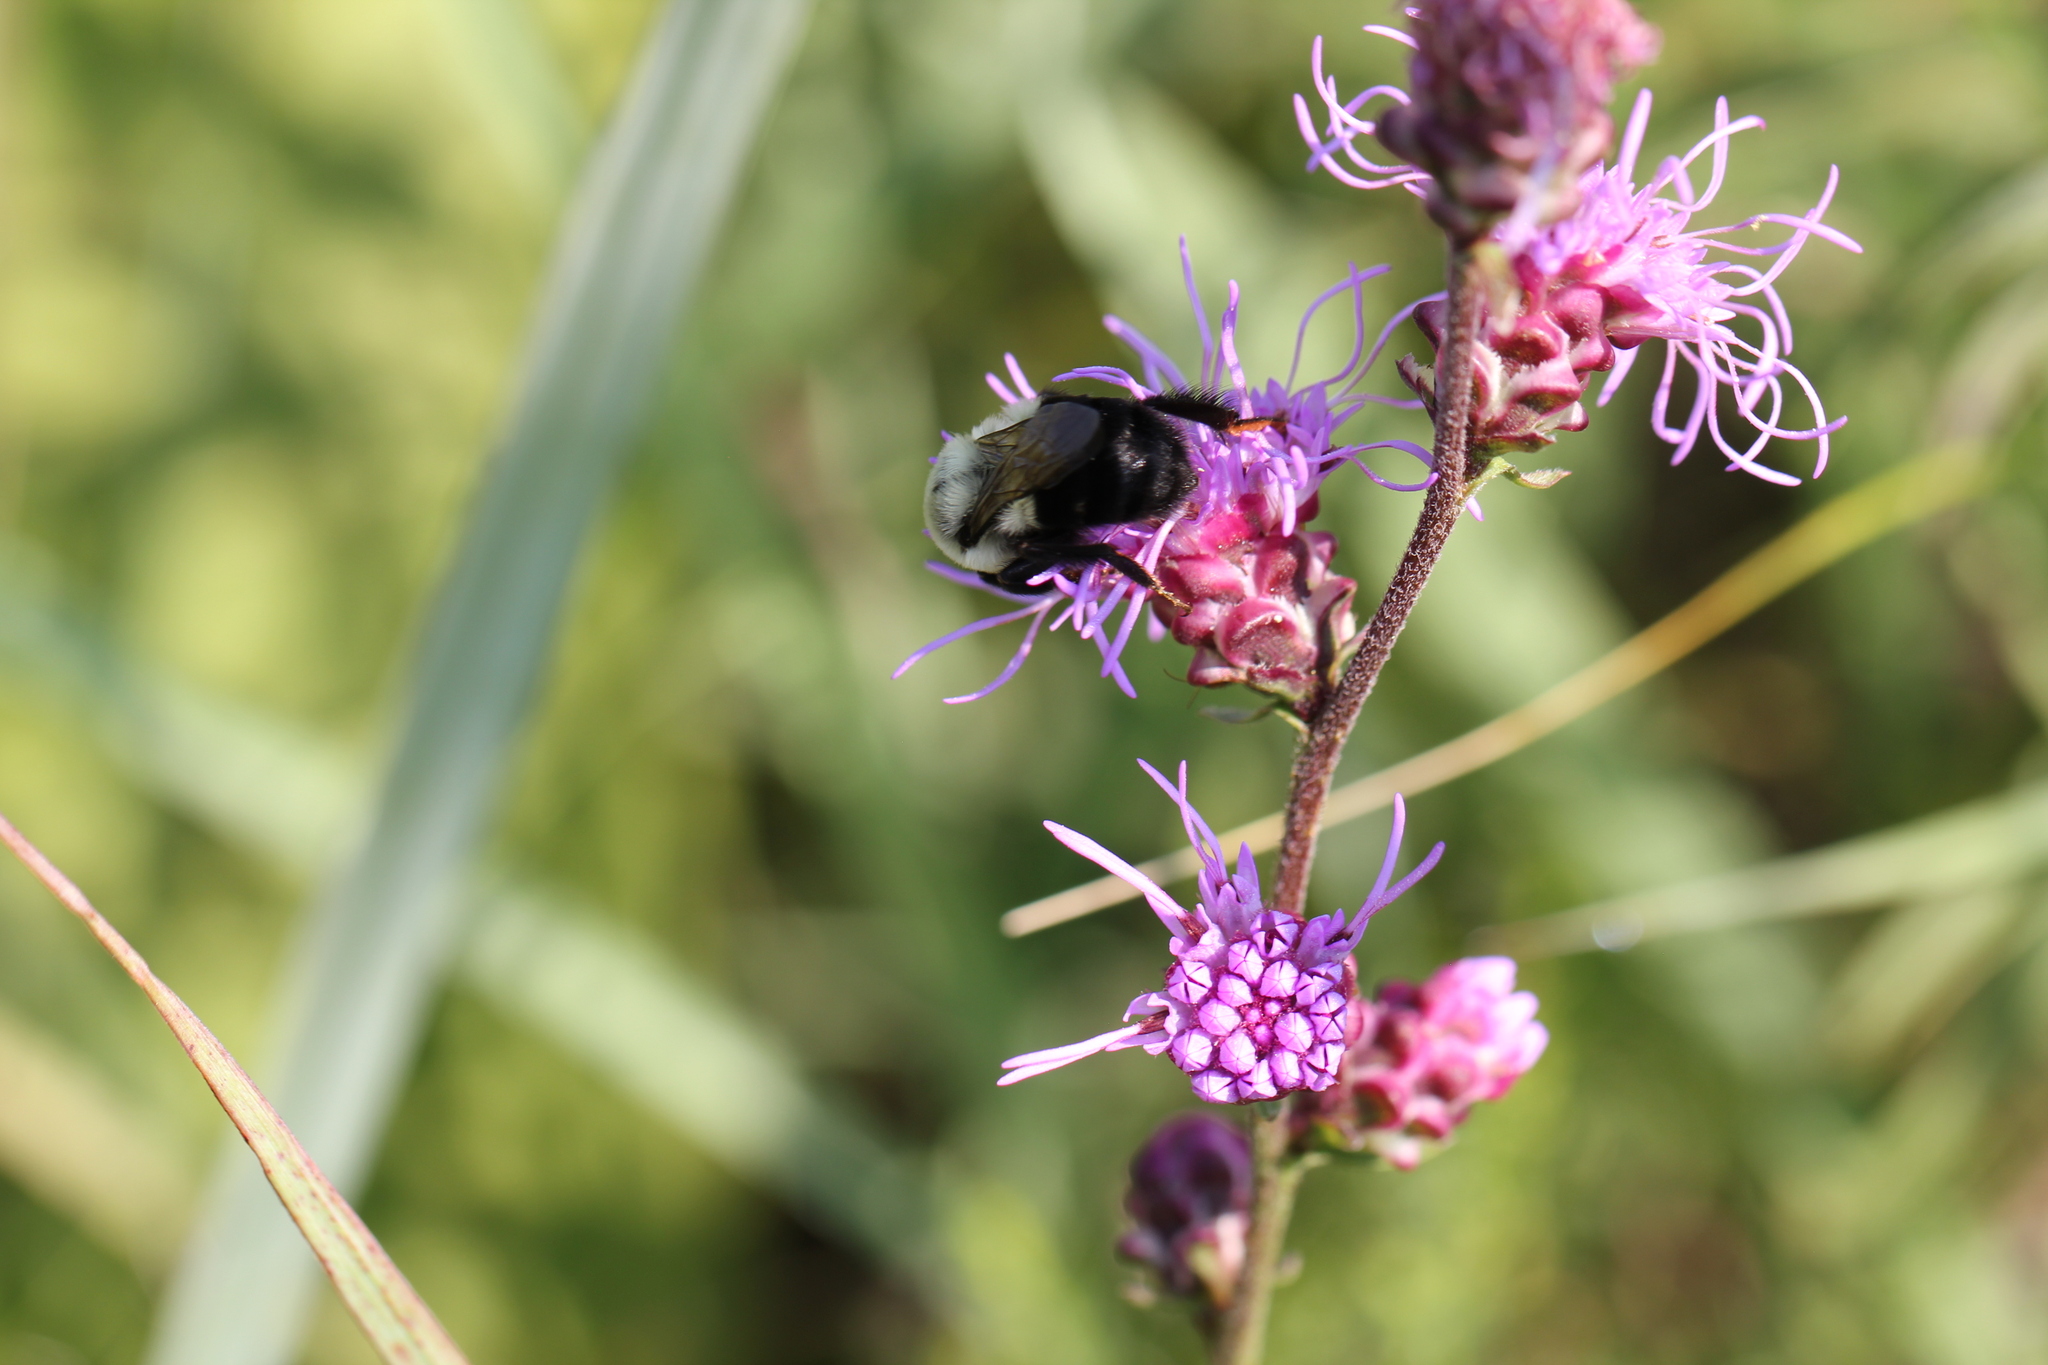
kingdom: Animalia
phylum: Arthropoda
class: Insecta
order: Hymenoptera
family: Apidae
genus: Bombus
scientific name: Bombus impatiens
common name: Common eastern bumble bee
